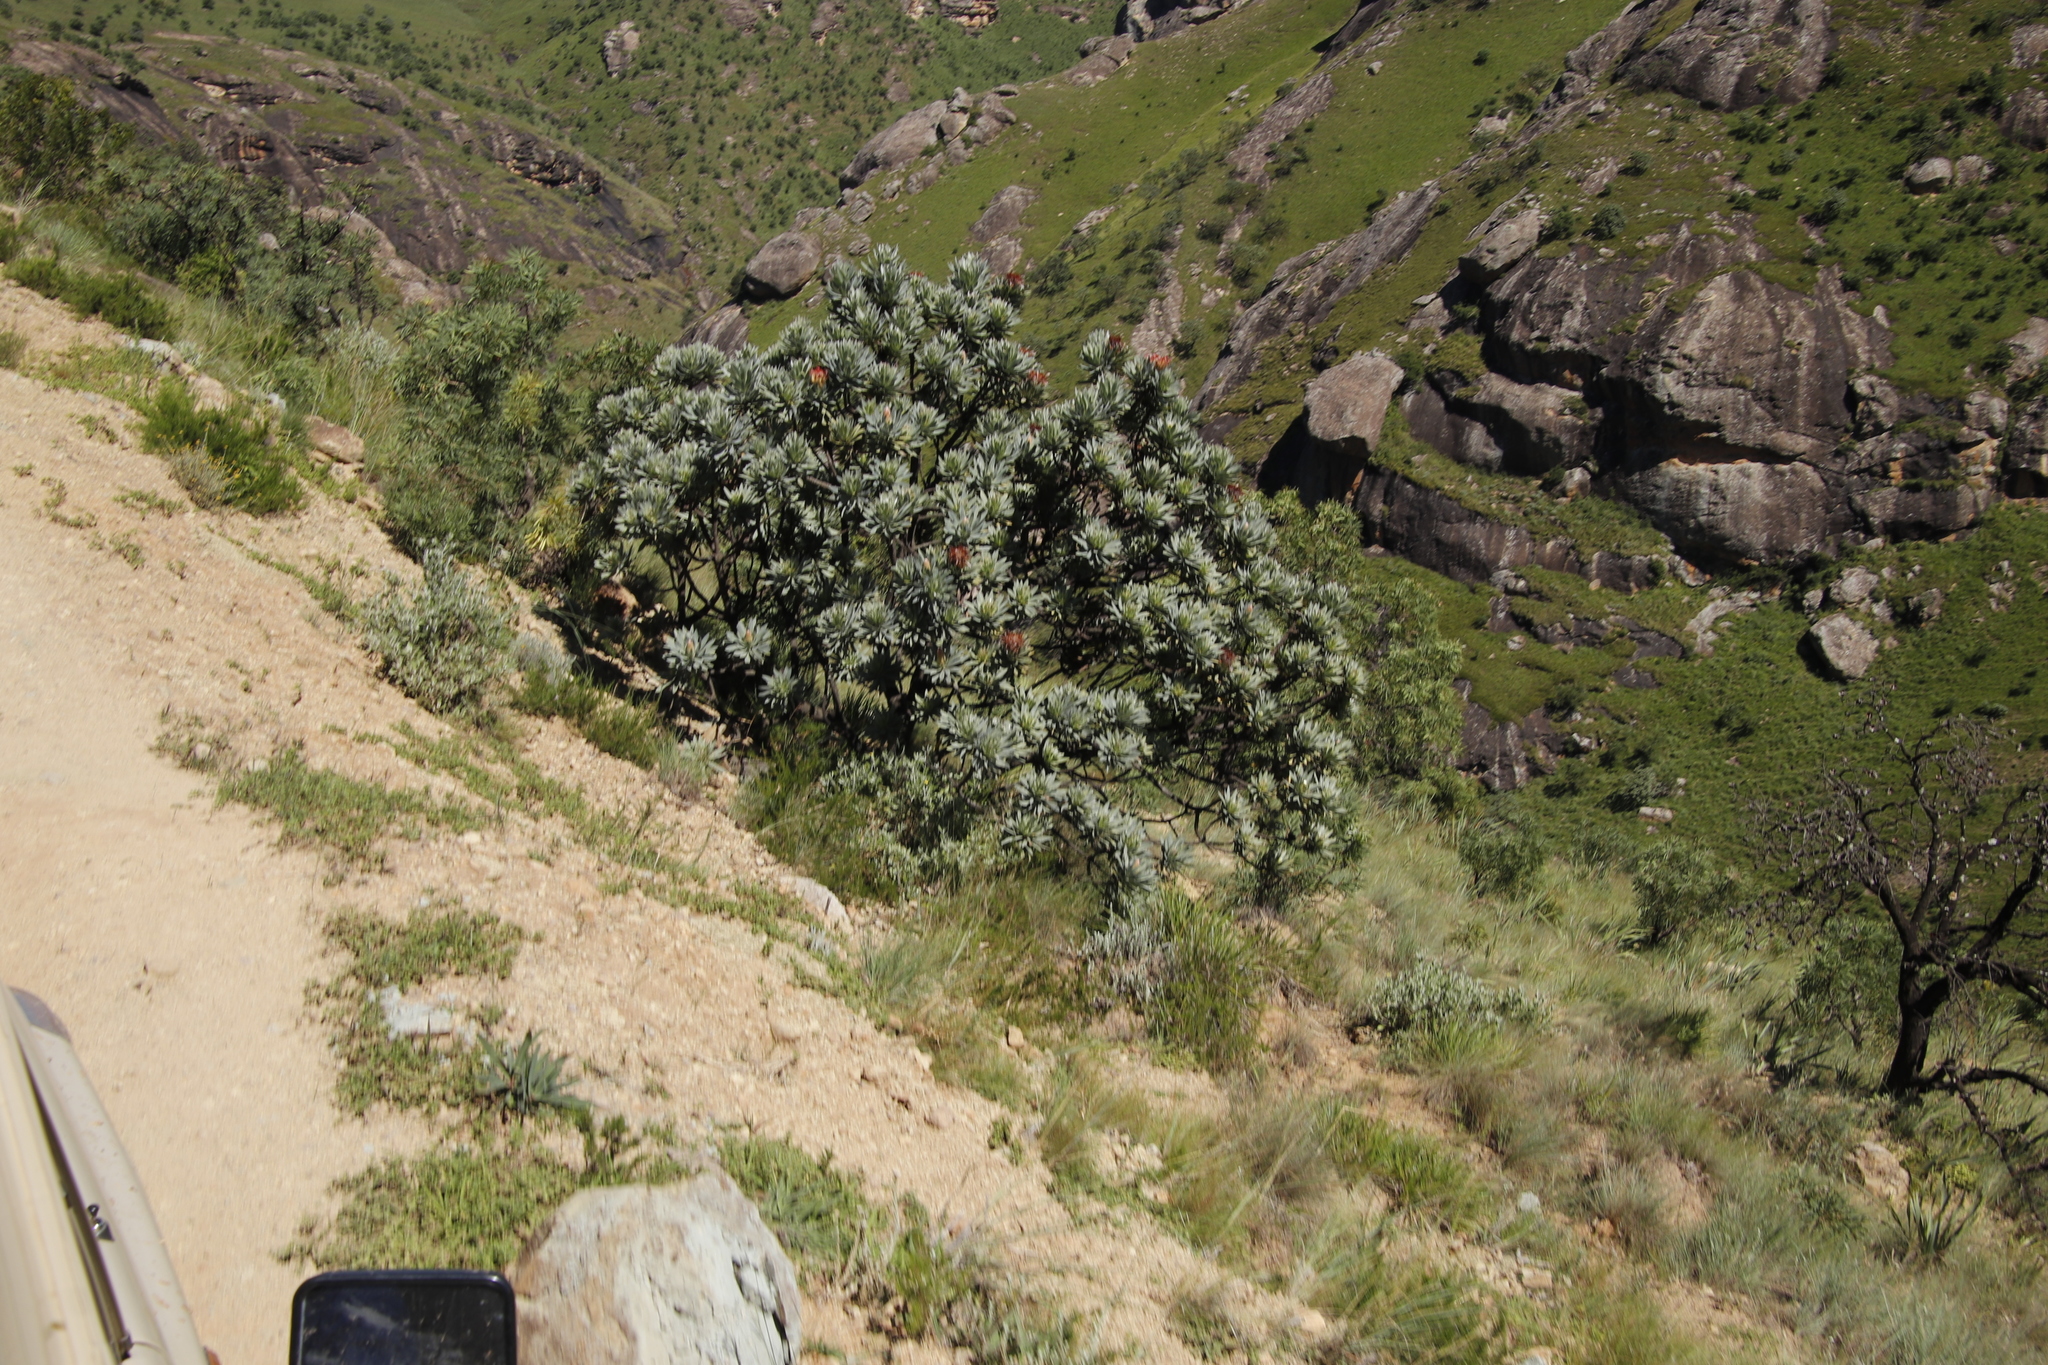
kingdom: Plantae
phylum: Tracheophyta
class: Magnoliopsida
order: Proteales
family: Proteaceae
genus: Protea
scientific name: Protea roupelliae
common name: Silver sugarbush
